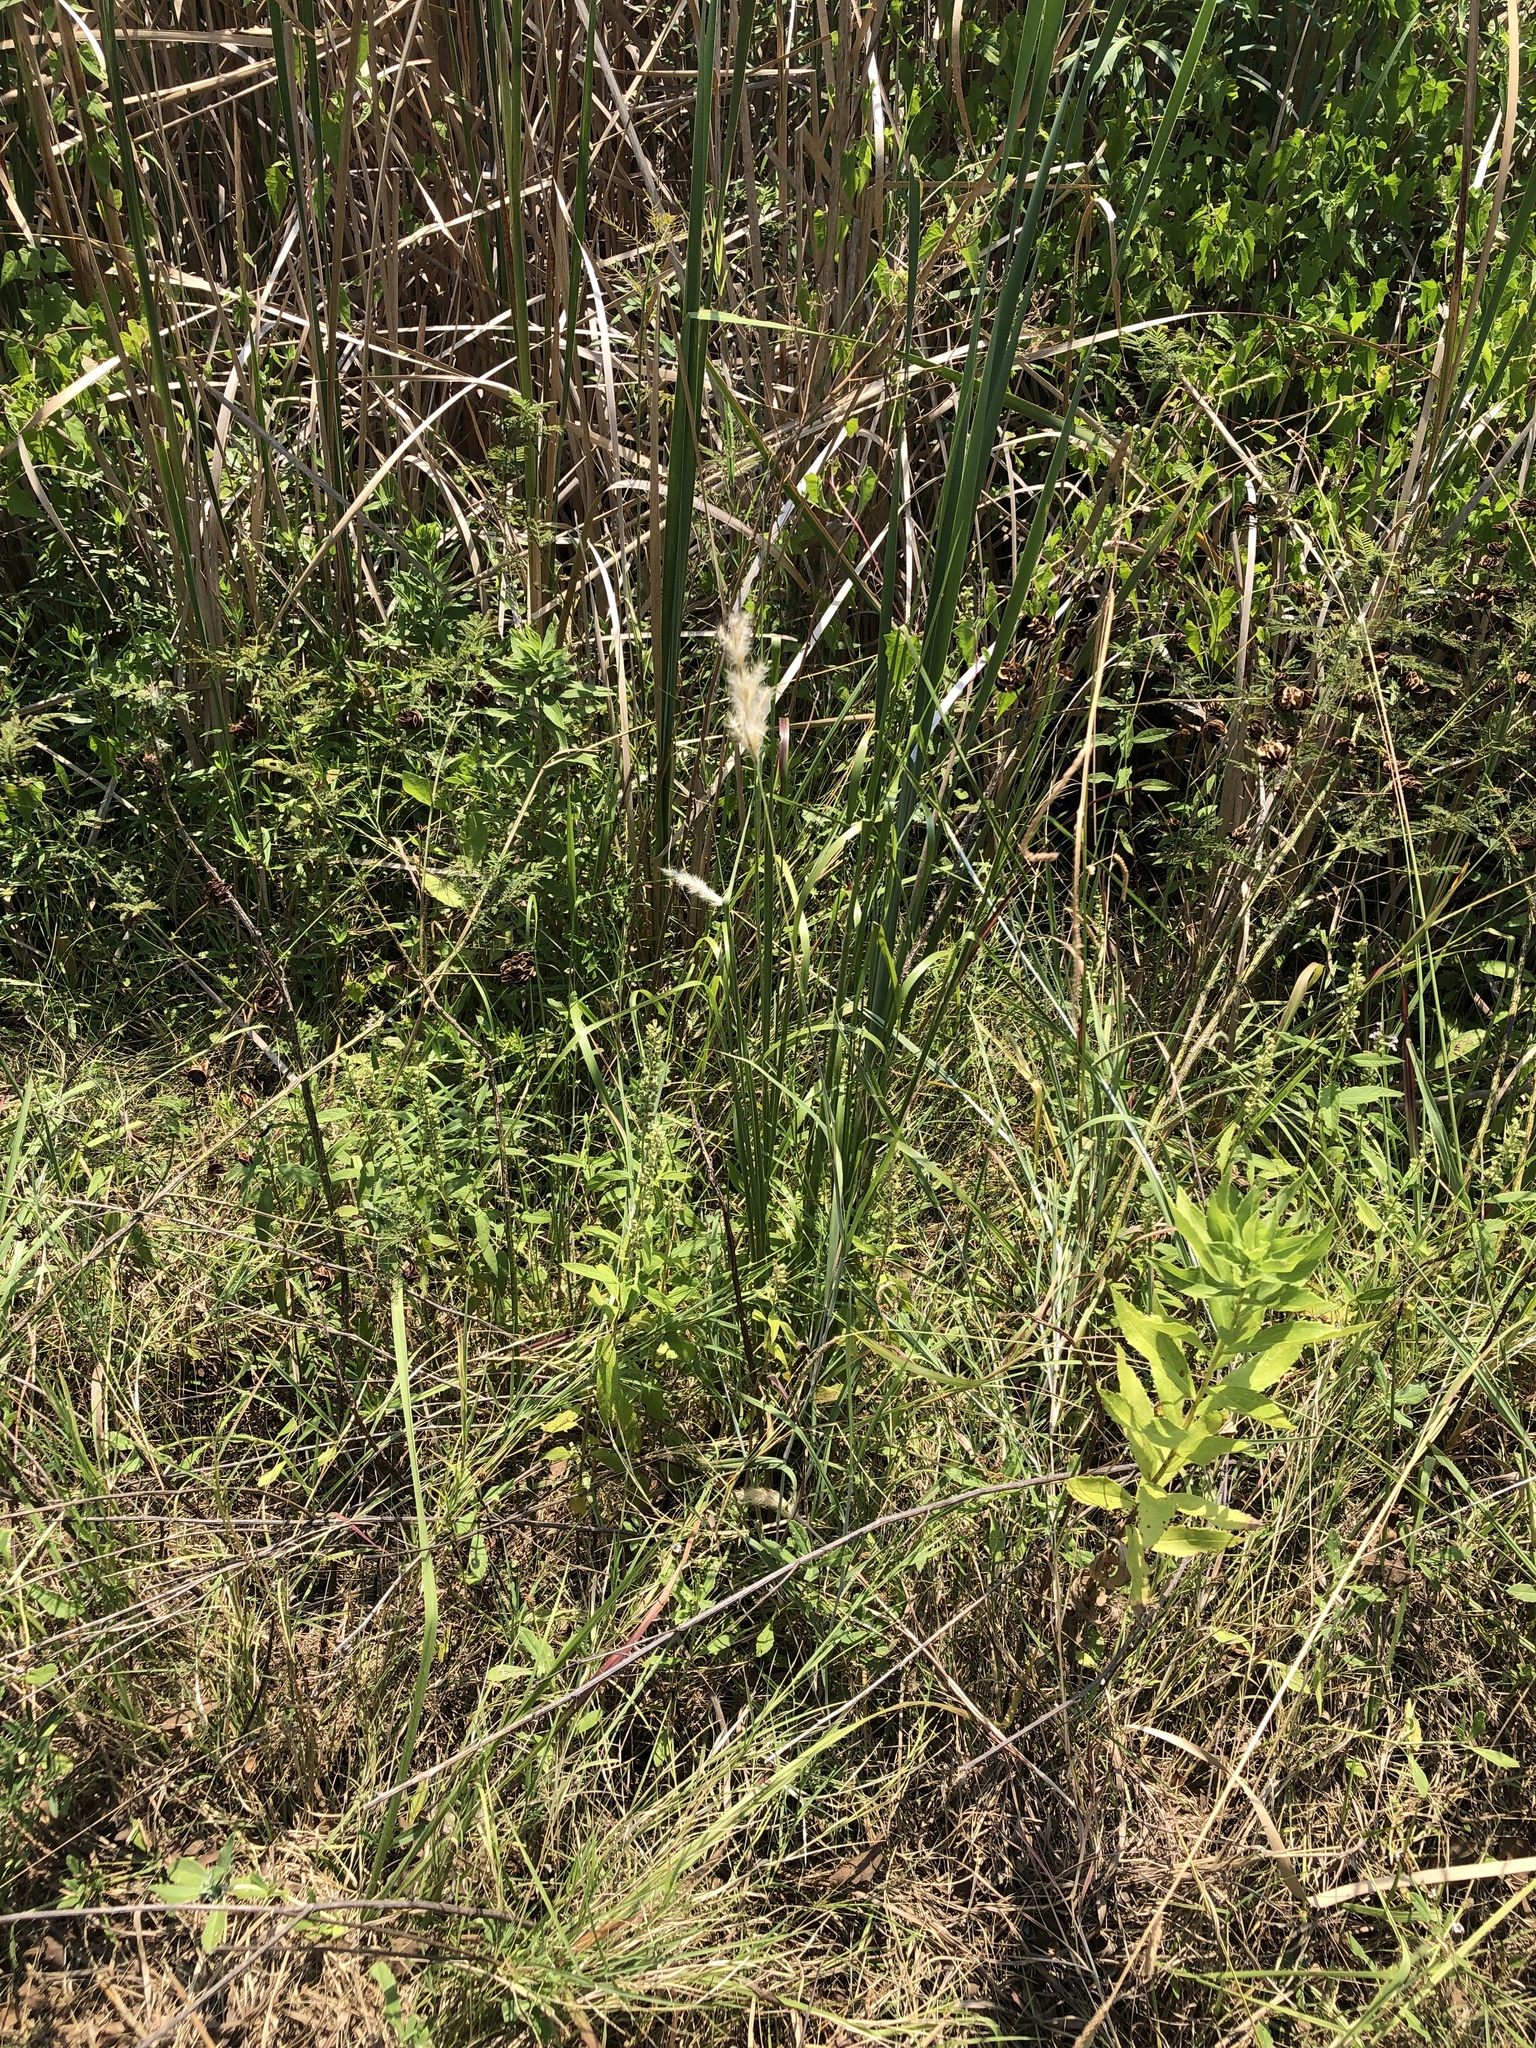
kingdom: Plantae
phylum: Tracheophyta
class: Liliopsida
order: Poales
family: Poaceae
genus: Bothriochloa
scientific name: Bothriochloa torreyana
